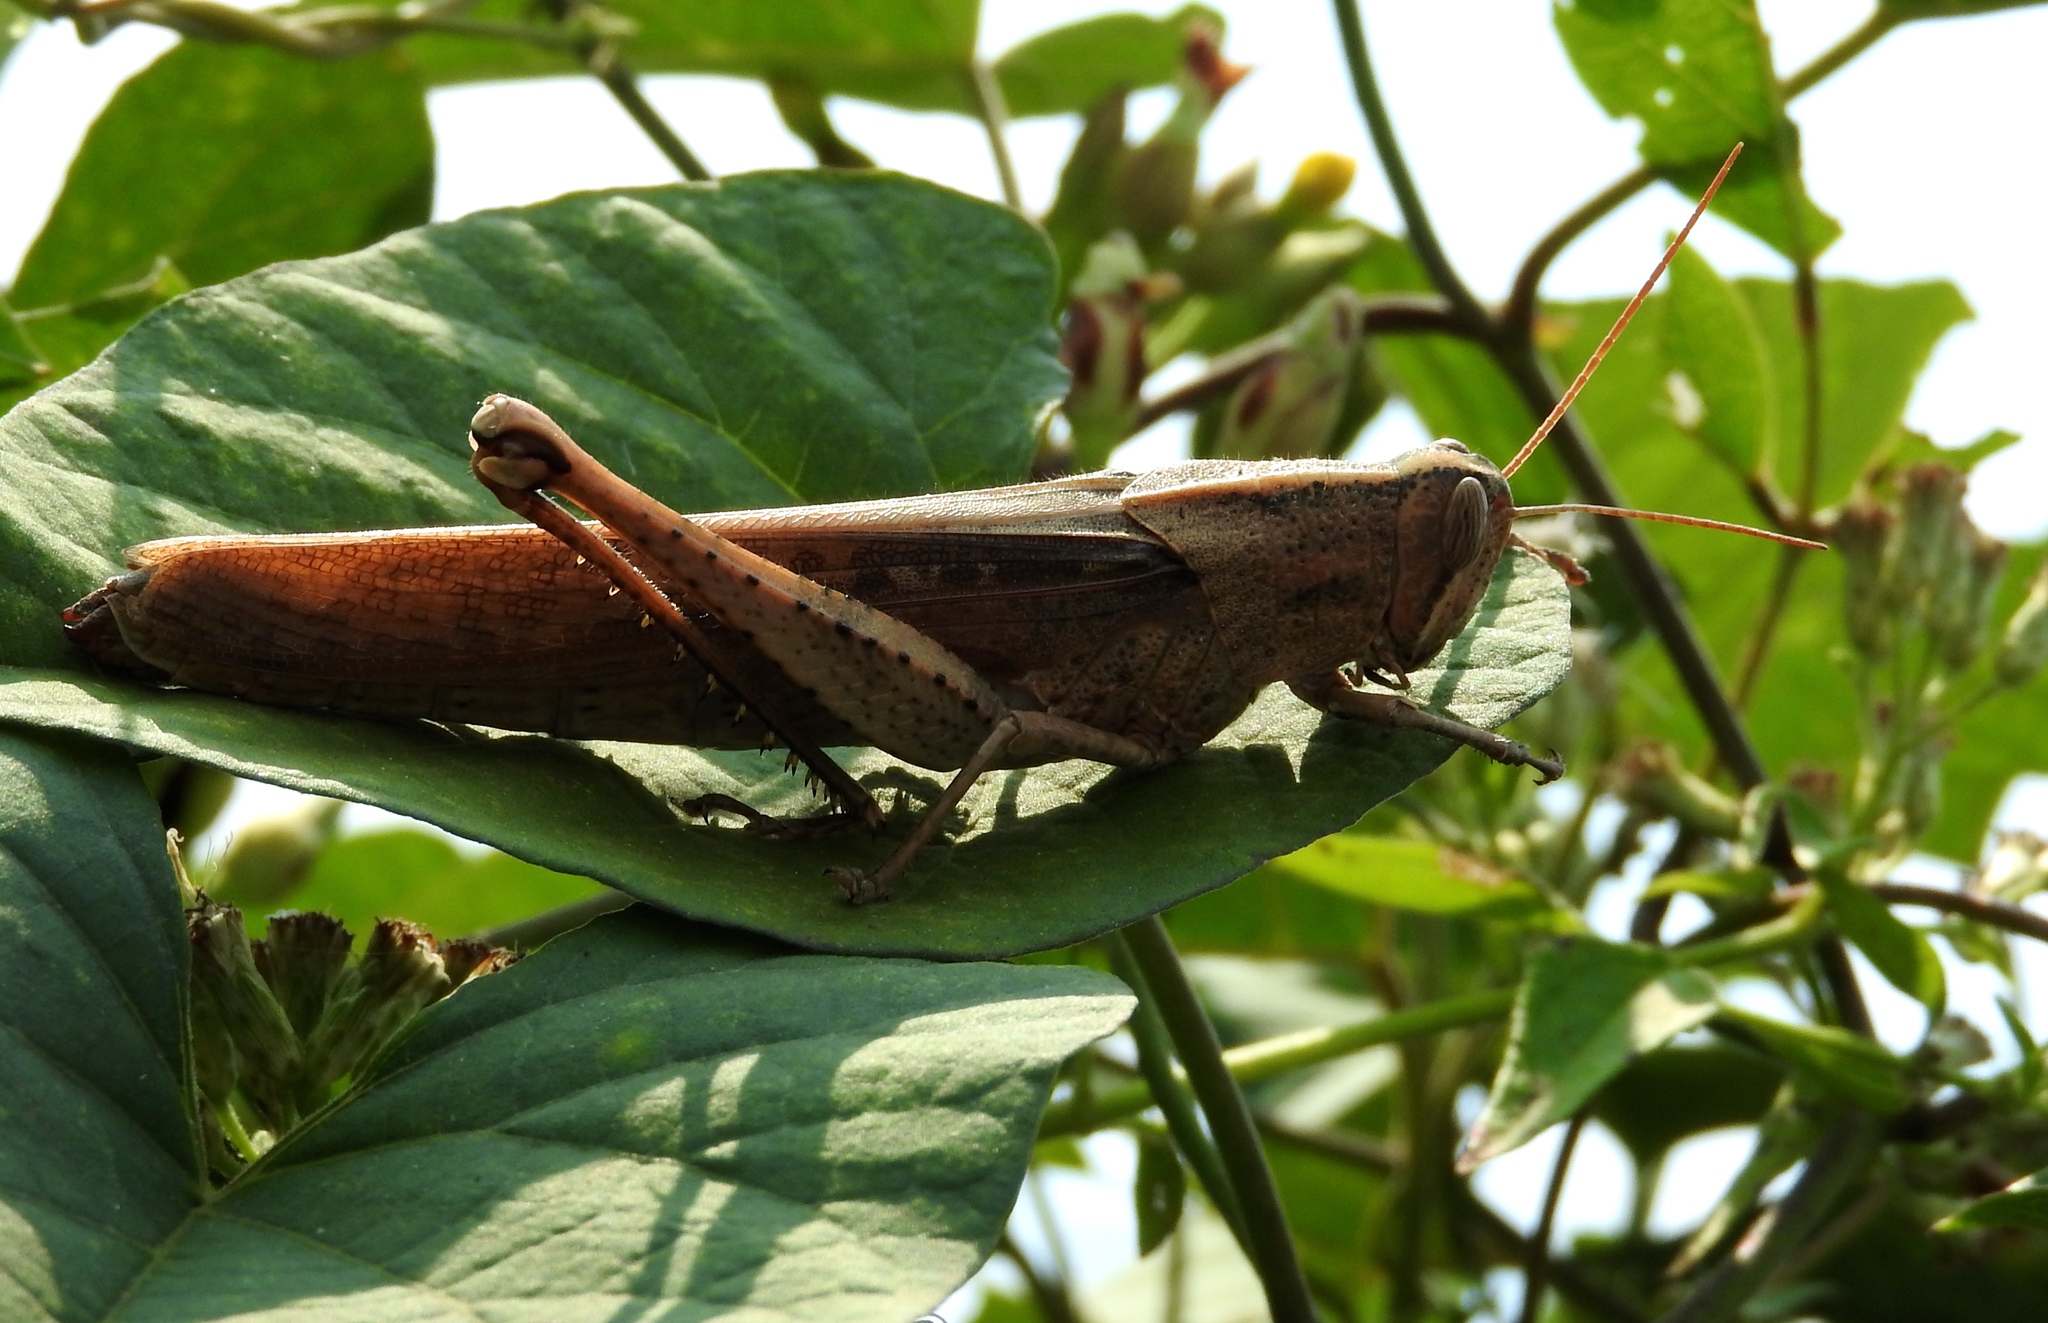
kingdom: Animalia
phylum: Arthropoda
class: Insecta
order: Orthoptera
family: Acrididae
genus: Schistocerca
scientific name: Schistocerca nitens
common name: Vagrant grasshopper
